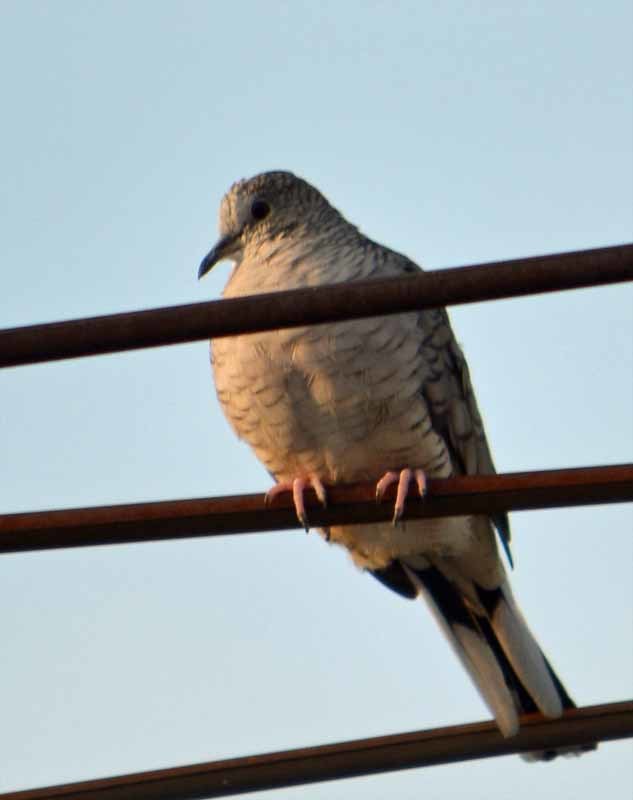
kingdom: Animalia
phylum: Chordata
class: Aves
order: Columbiformes
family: Columbidae
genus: Columbina
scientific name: Columbina inca
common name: Inca dove
